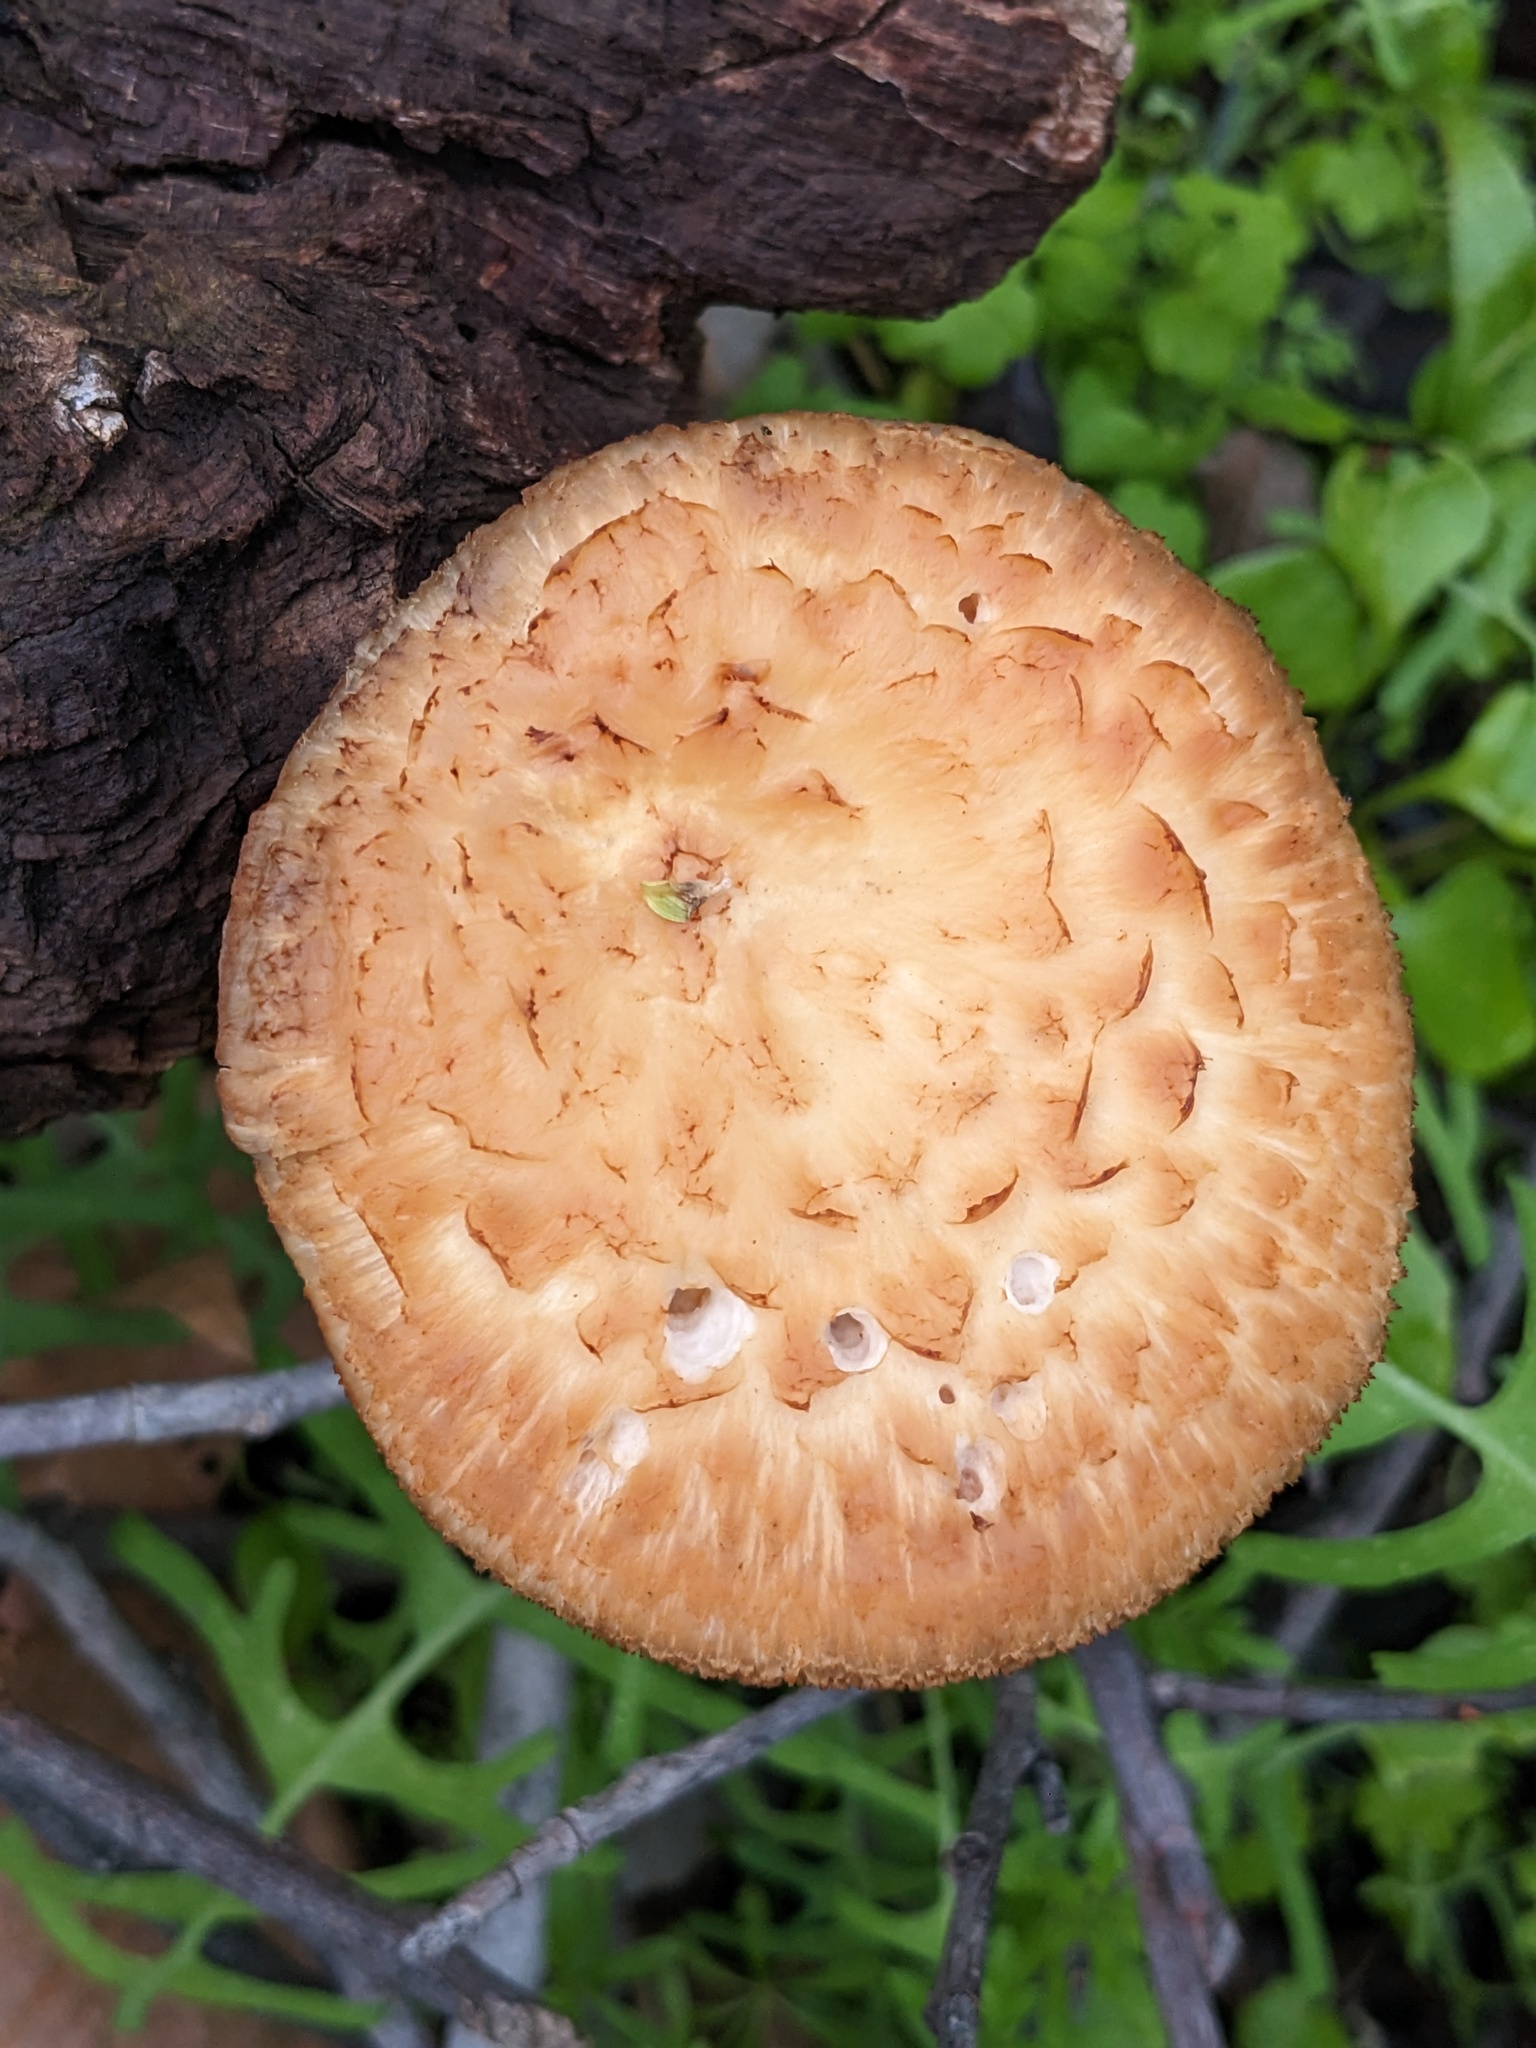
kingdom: Fungi
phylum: Basidiomycota
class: Agaricomycetes
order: Polyporales
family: Phanerochaetaceae
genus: Bjerkandera
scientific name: Bjerkandera fumosa
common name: Big smoky bracket
